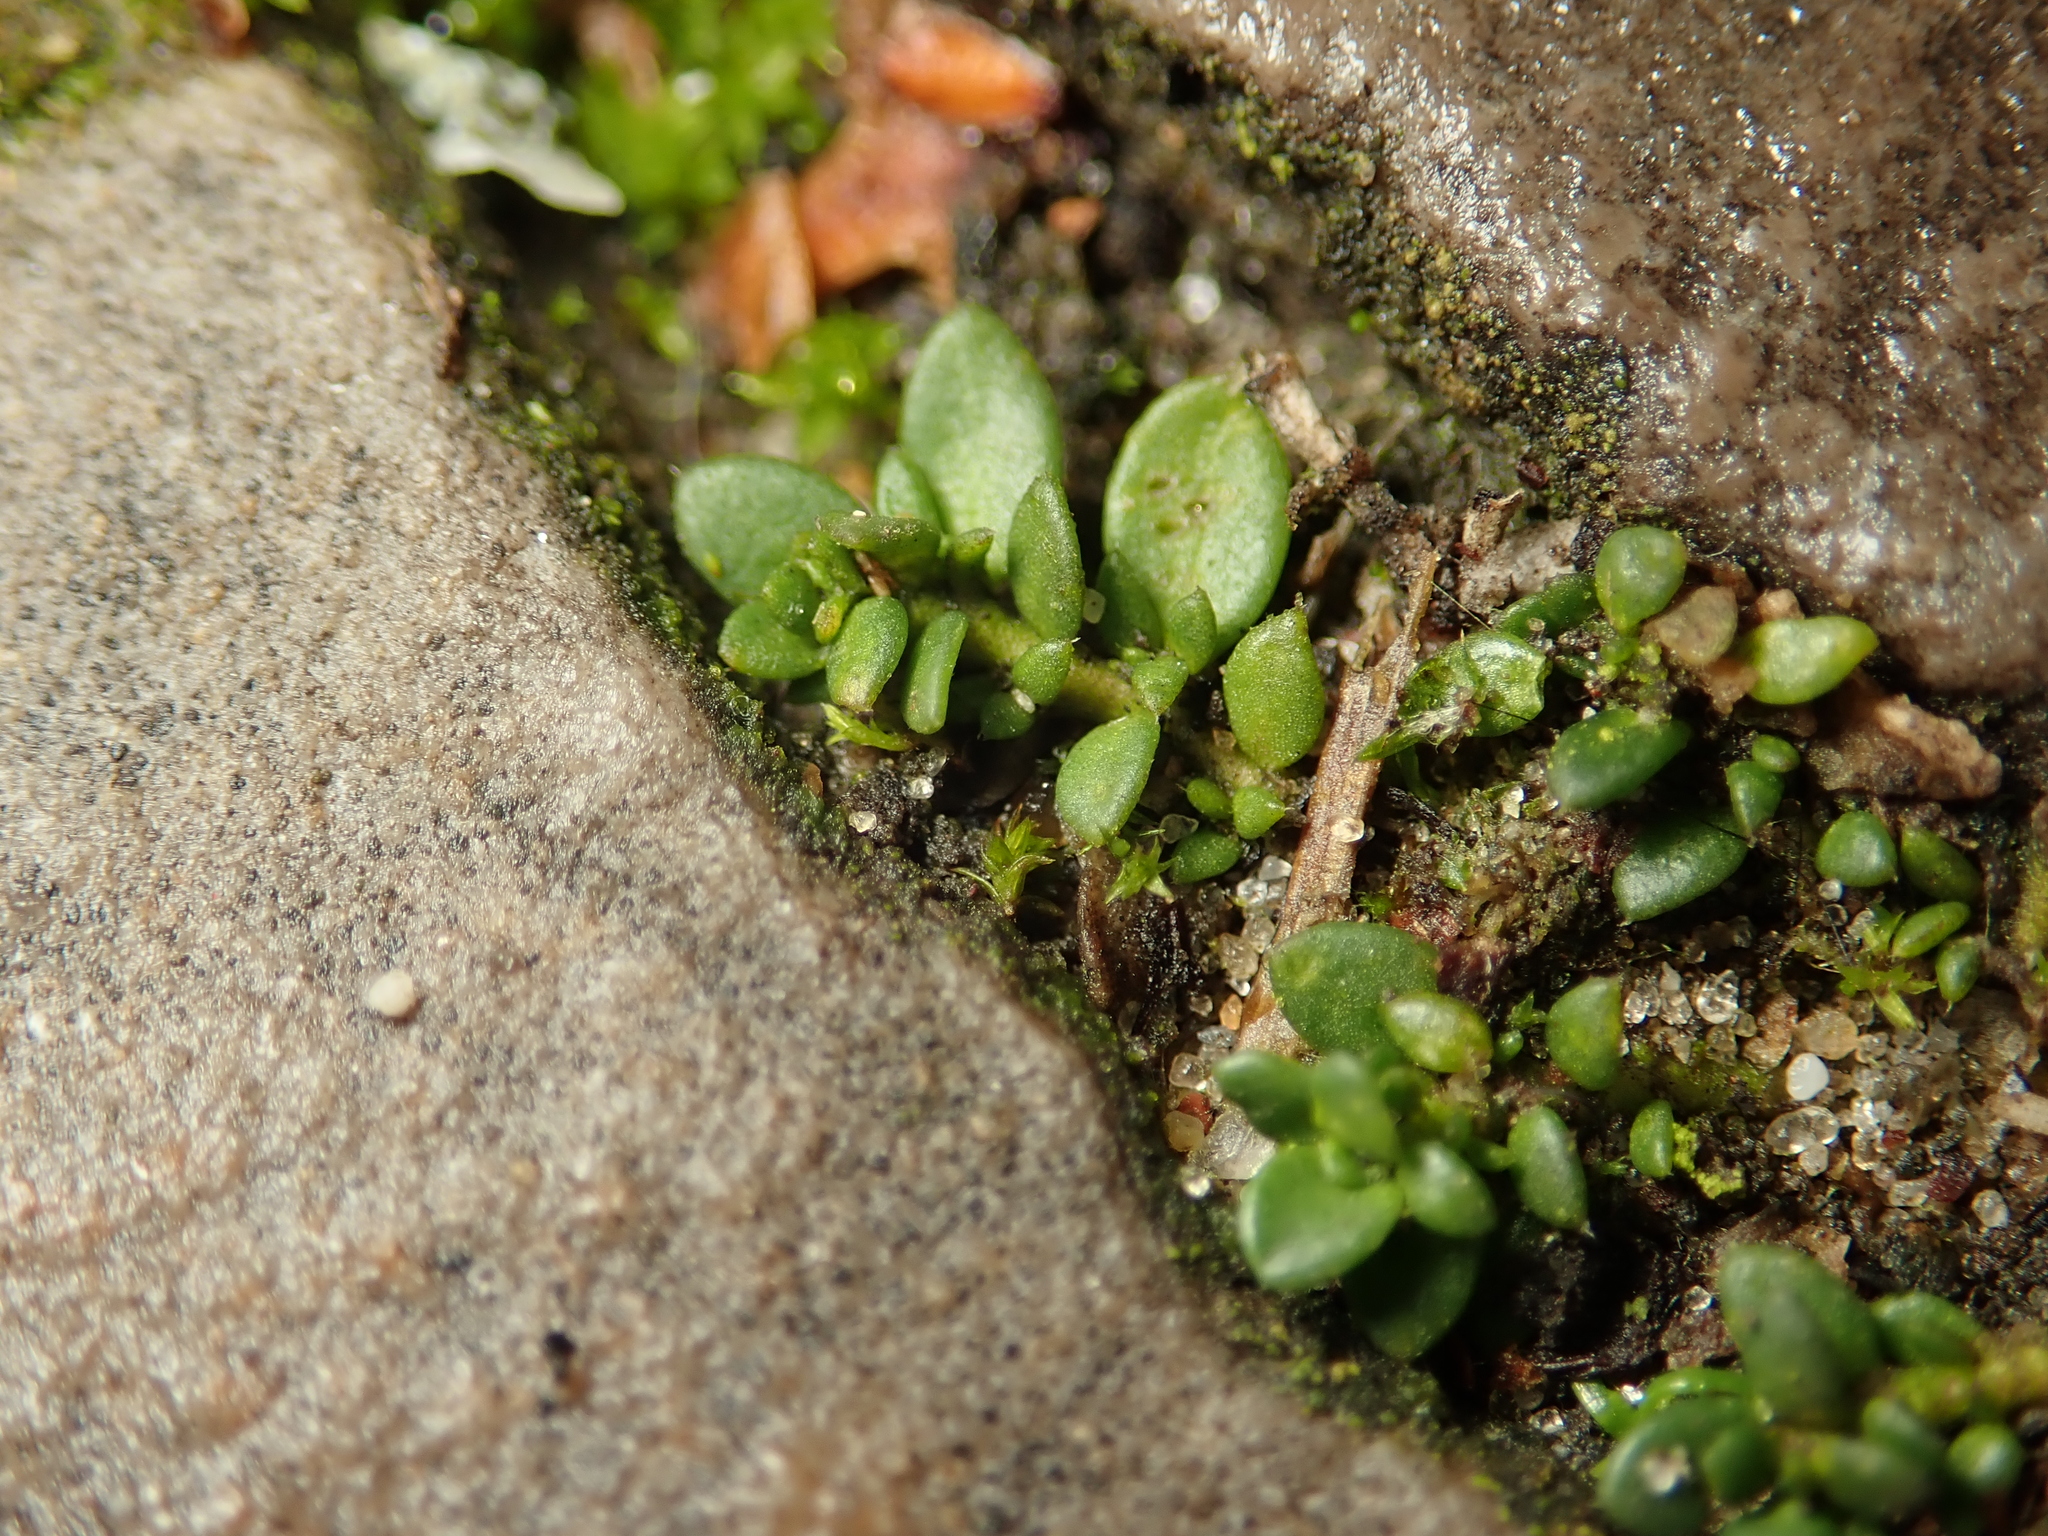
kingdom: Plantae
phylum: Tracheophyta
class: Magnoliopsida
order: Caryophyllales
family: Caryophyllaceae
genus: Herniaria
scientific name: Herniaria glabra
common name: Smooth rupturewort
